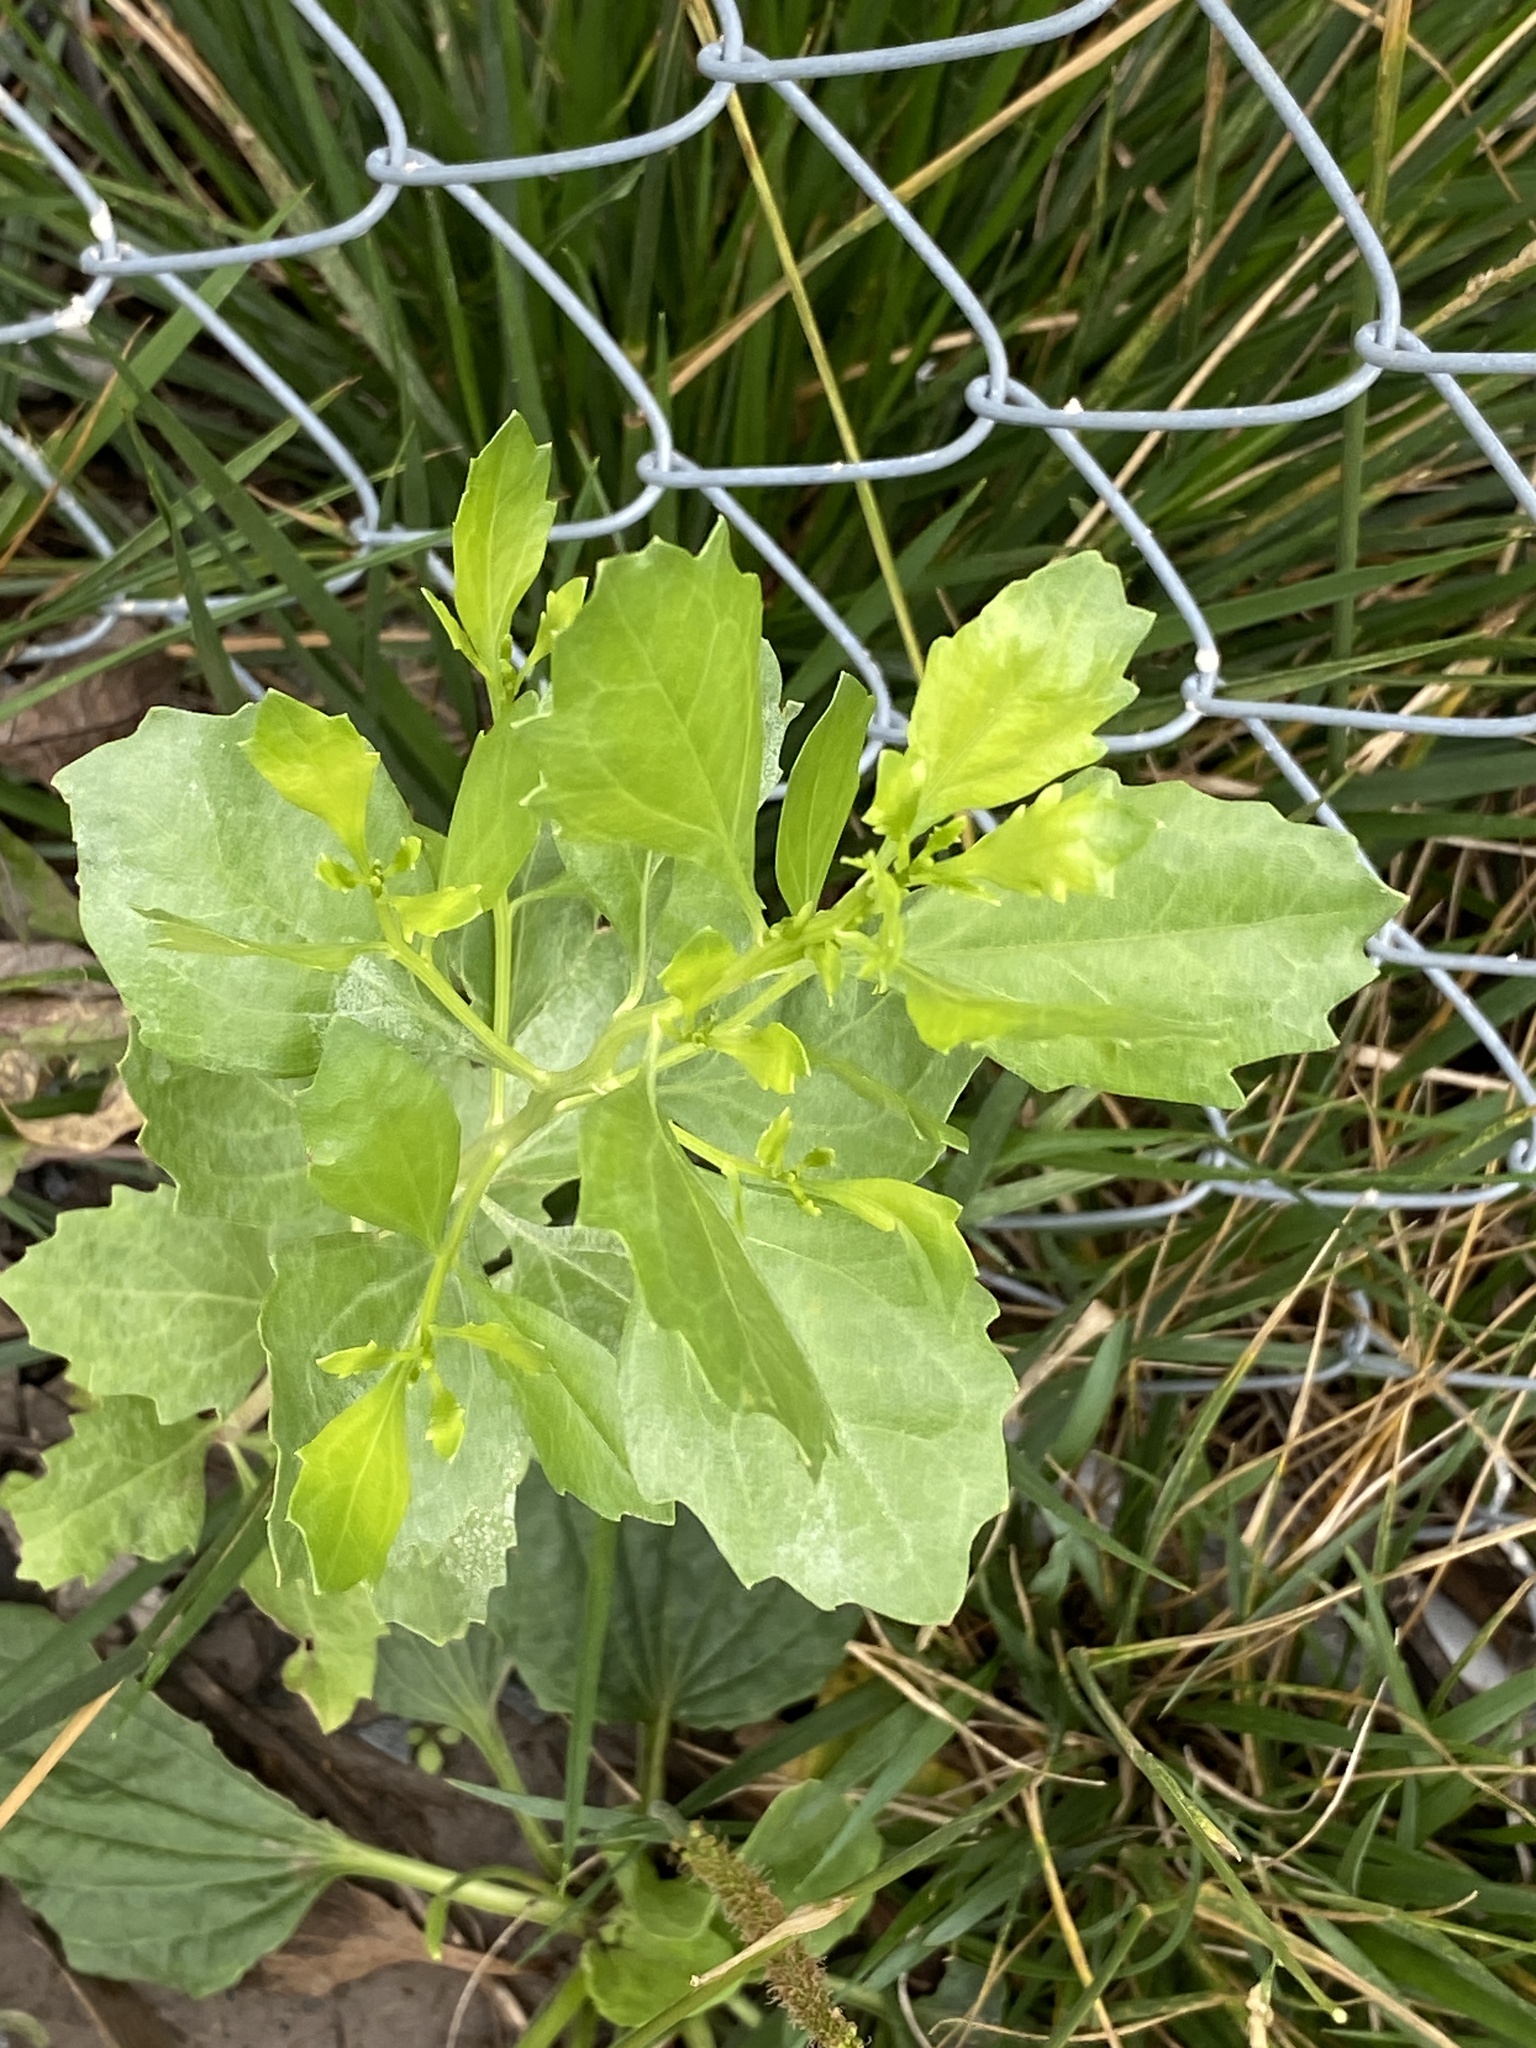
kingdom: Plantae
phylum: Tracheophyta
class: Magnoliopsida
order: Asterales
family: Asteraceae
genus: Baccharis
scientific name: Baccharis halimifolia
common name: Eastern baccharis
